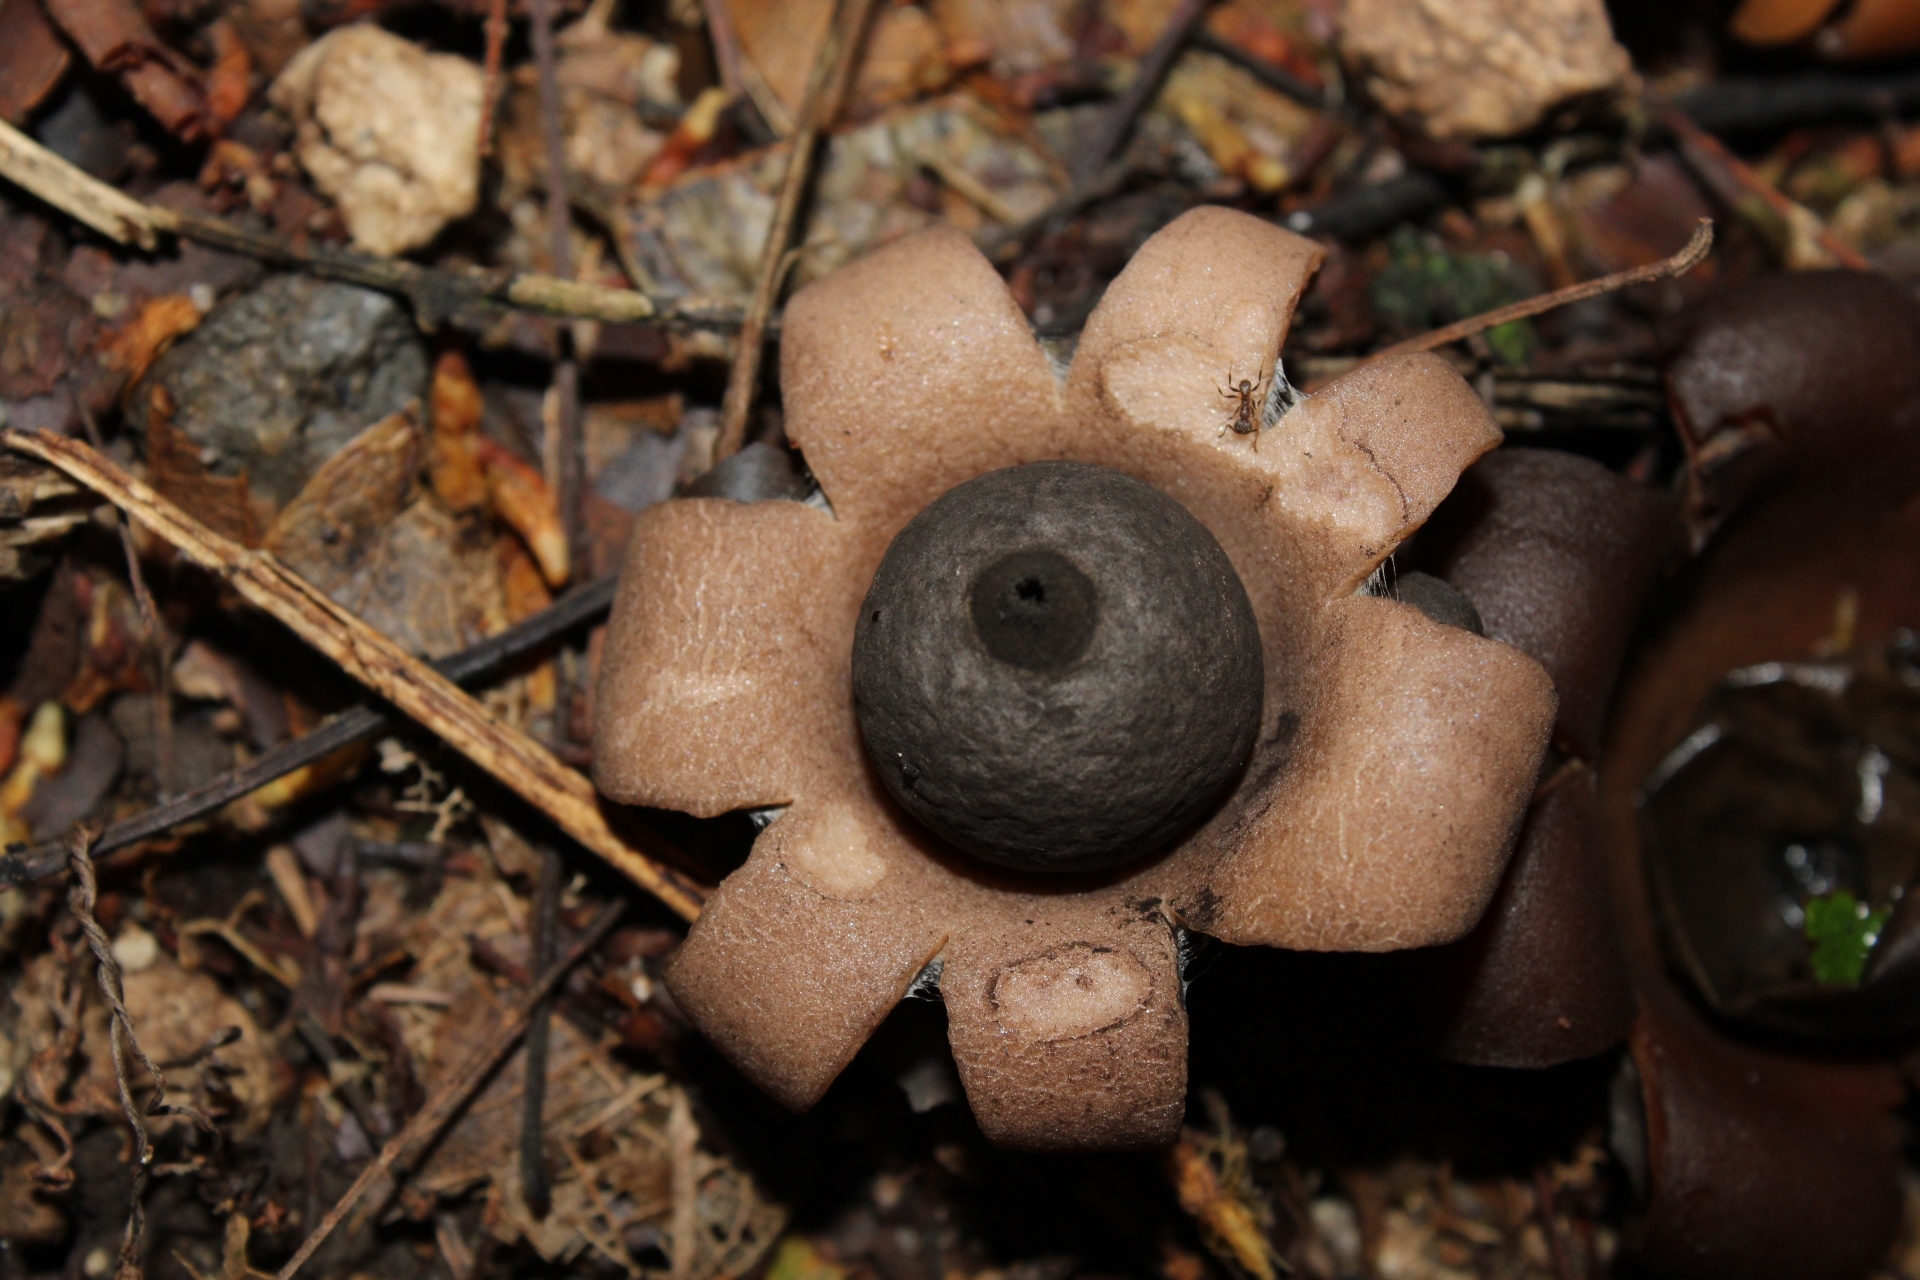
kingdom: Fungi
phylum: Basidiomycota
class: Agaricomycetes
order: Geastrales
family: Geastraceae
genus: Geastrum
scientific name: Geastrum saccatum
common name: Rounded earthstar
